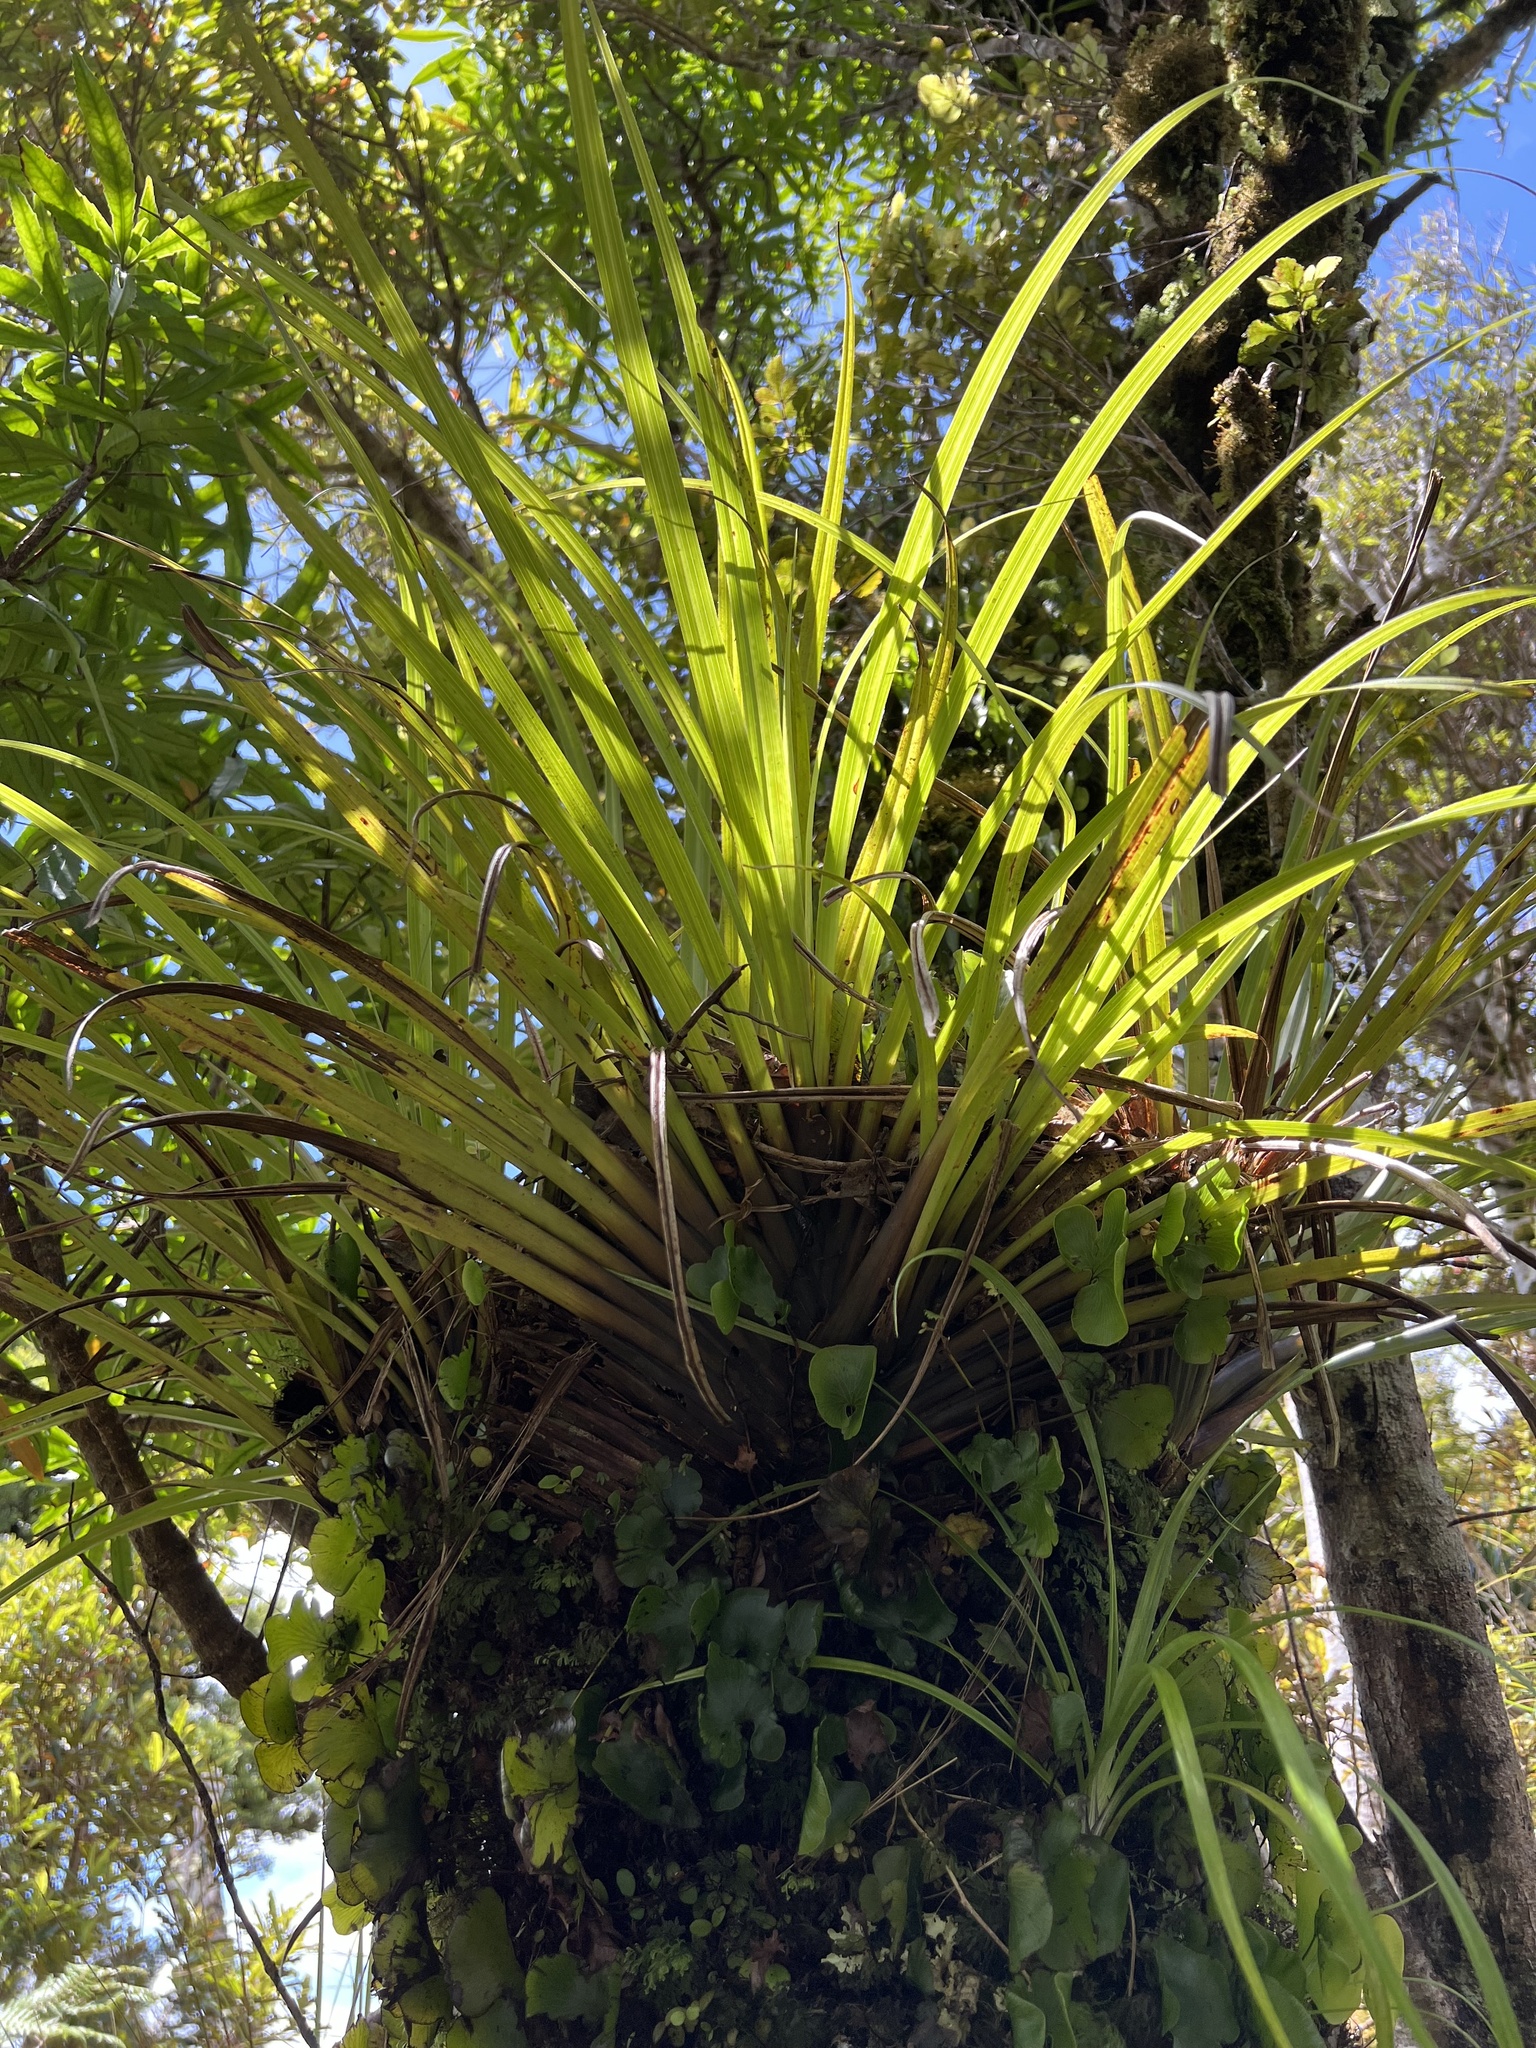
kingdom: Plantae
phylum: Tracheophyta
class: Liliopsida
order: Asparagales
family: Asteliaceae
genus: Astelia
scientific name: Astelia microsperma
